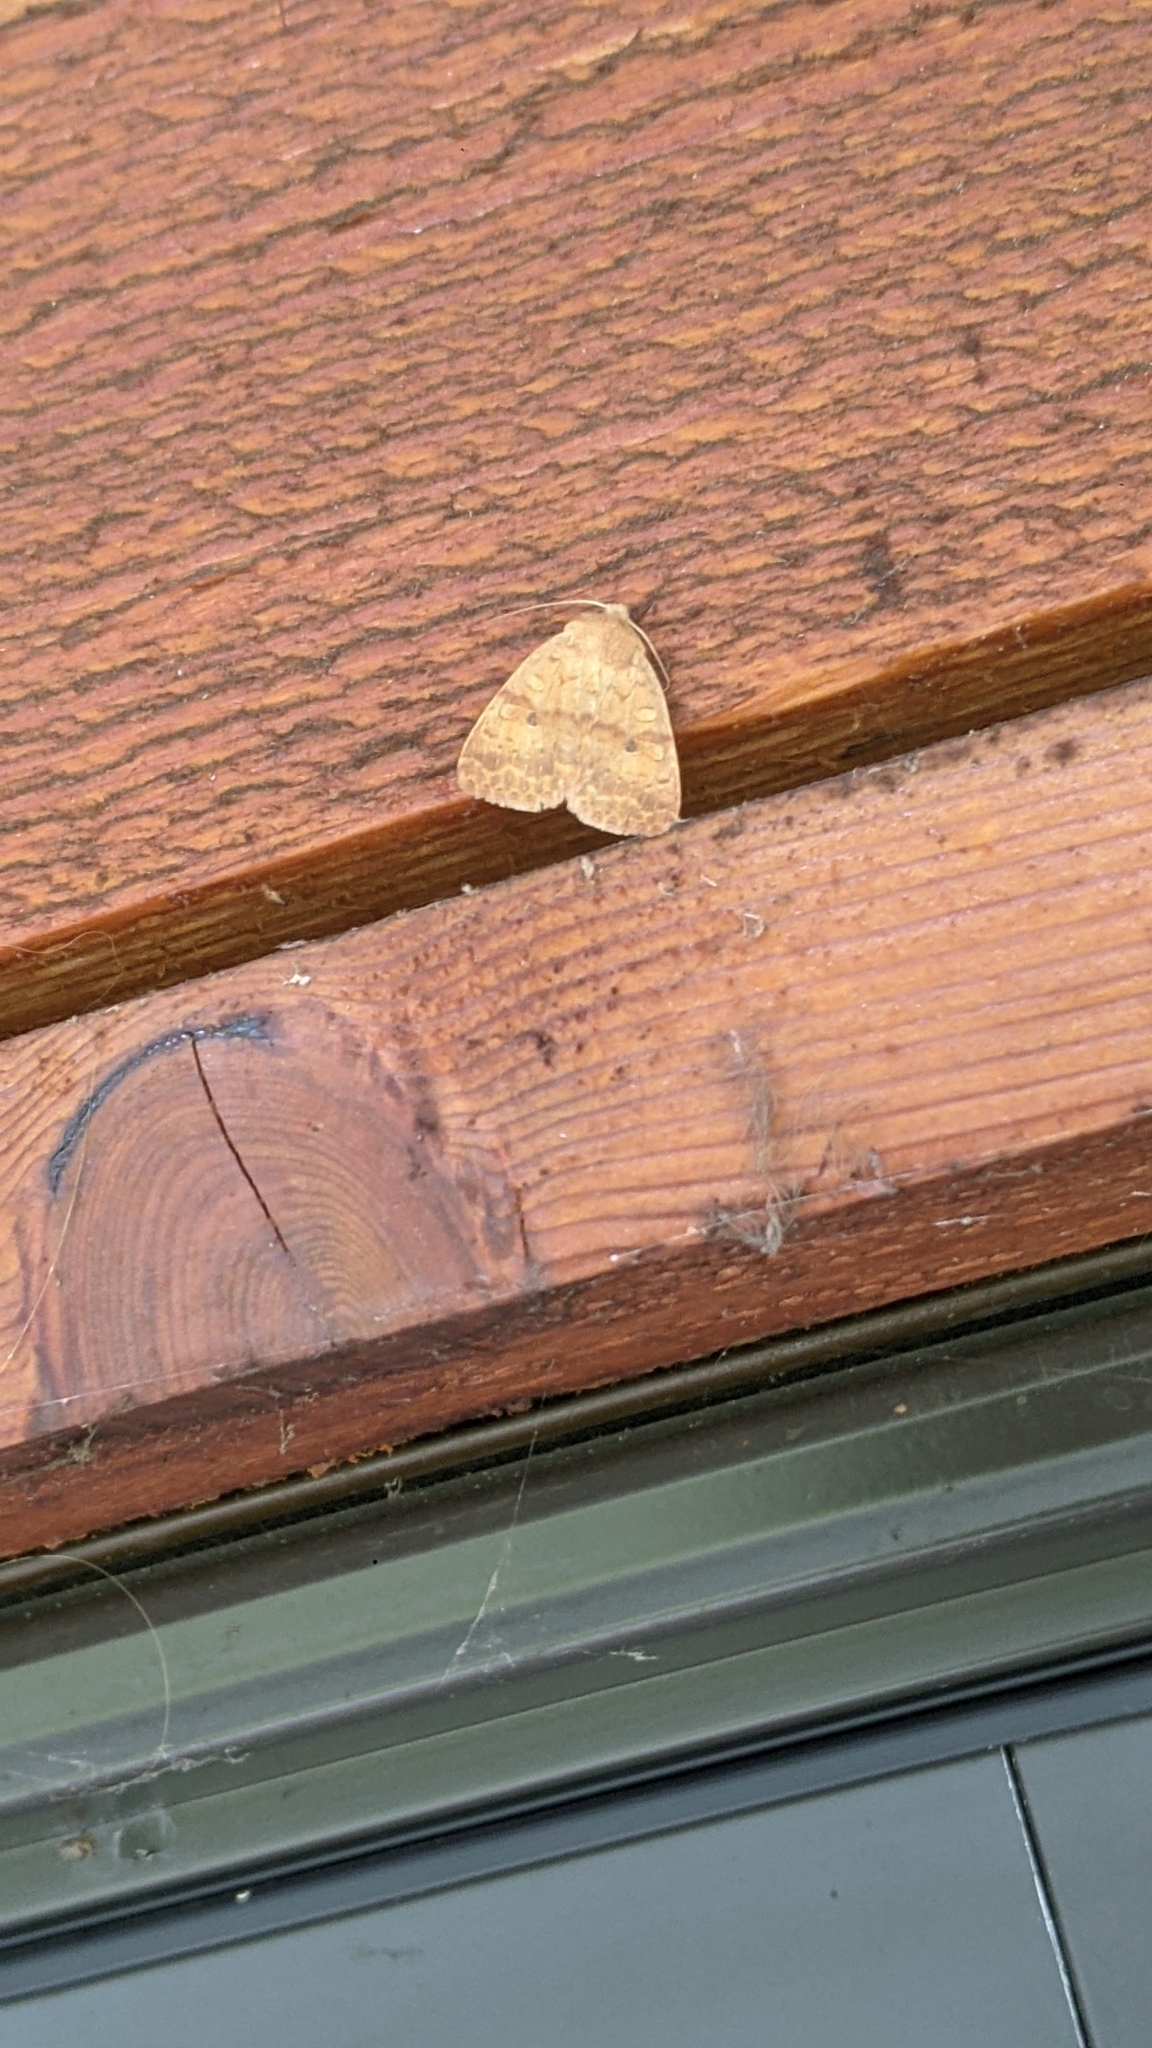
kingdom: Animalia
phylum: Arthropoda
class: Insecta
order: Lepidoptera
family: Noctuidae
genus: Agrochola
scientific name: Agrochola bicolorago
